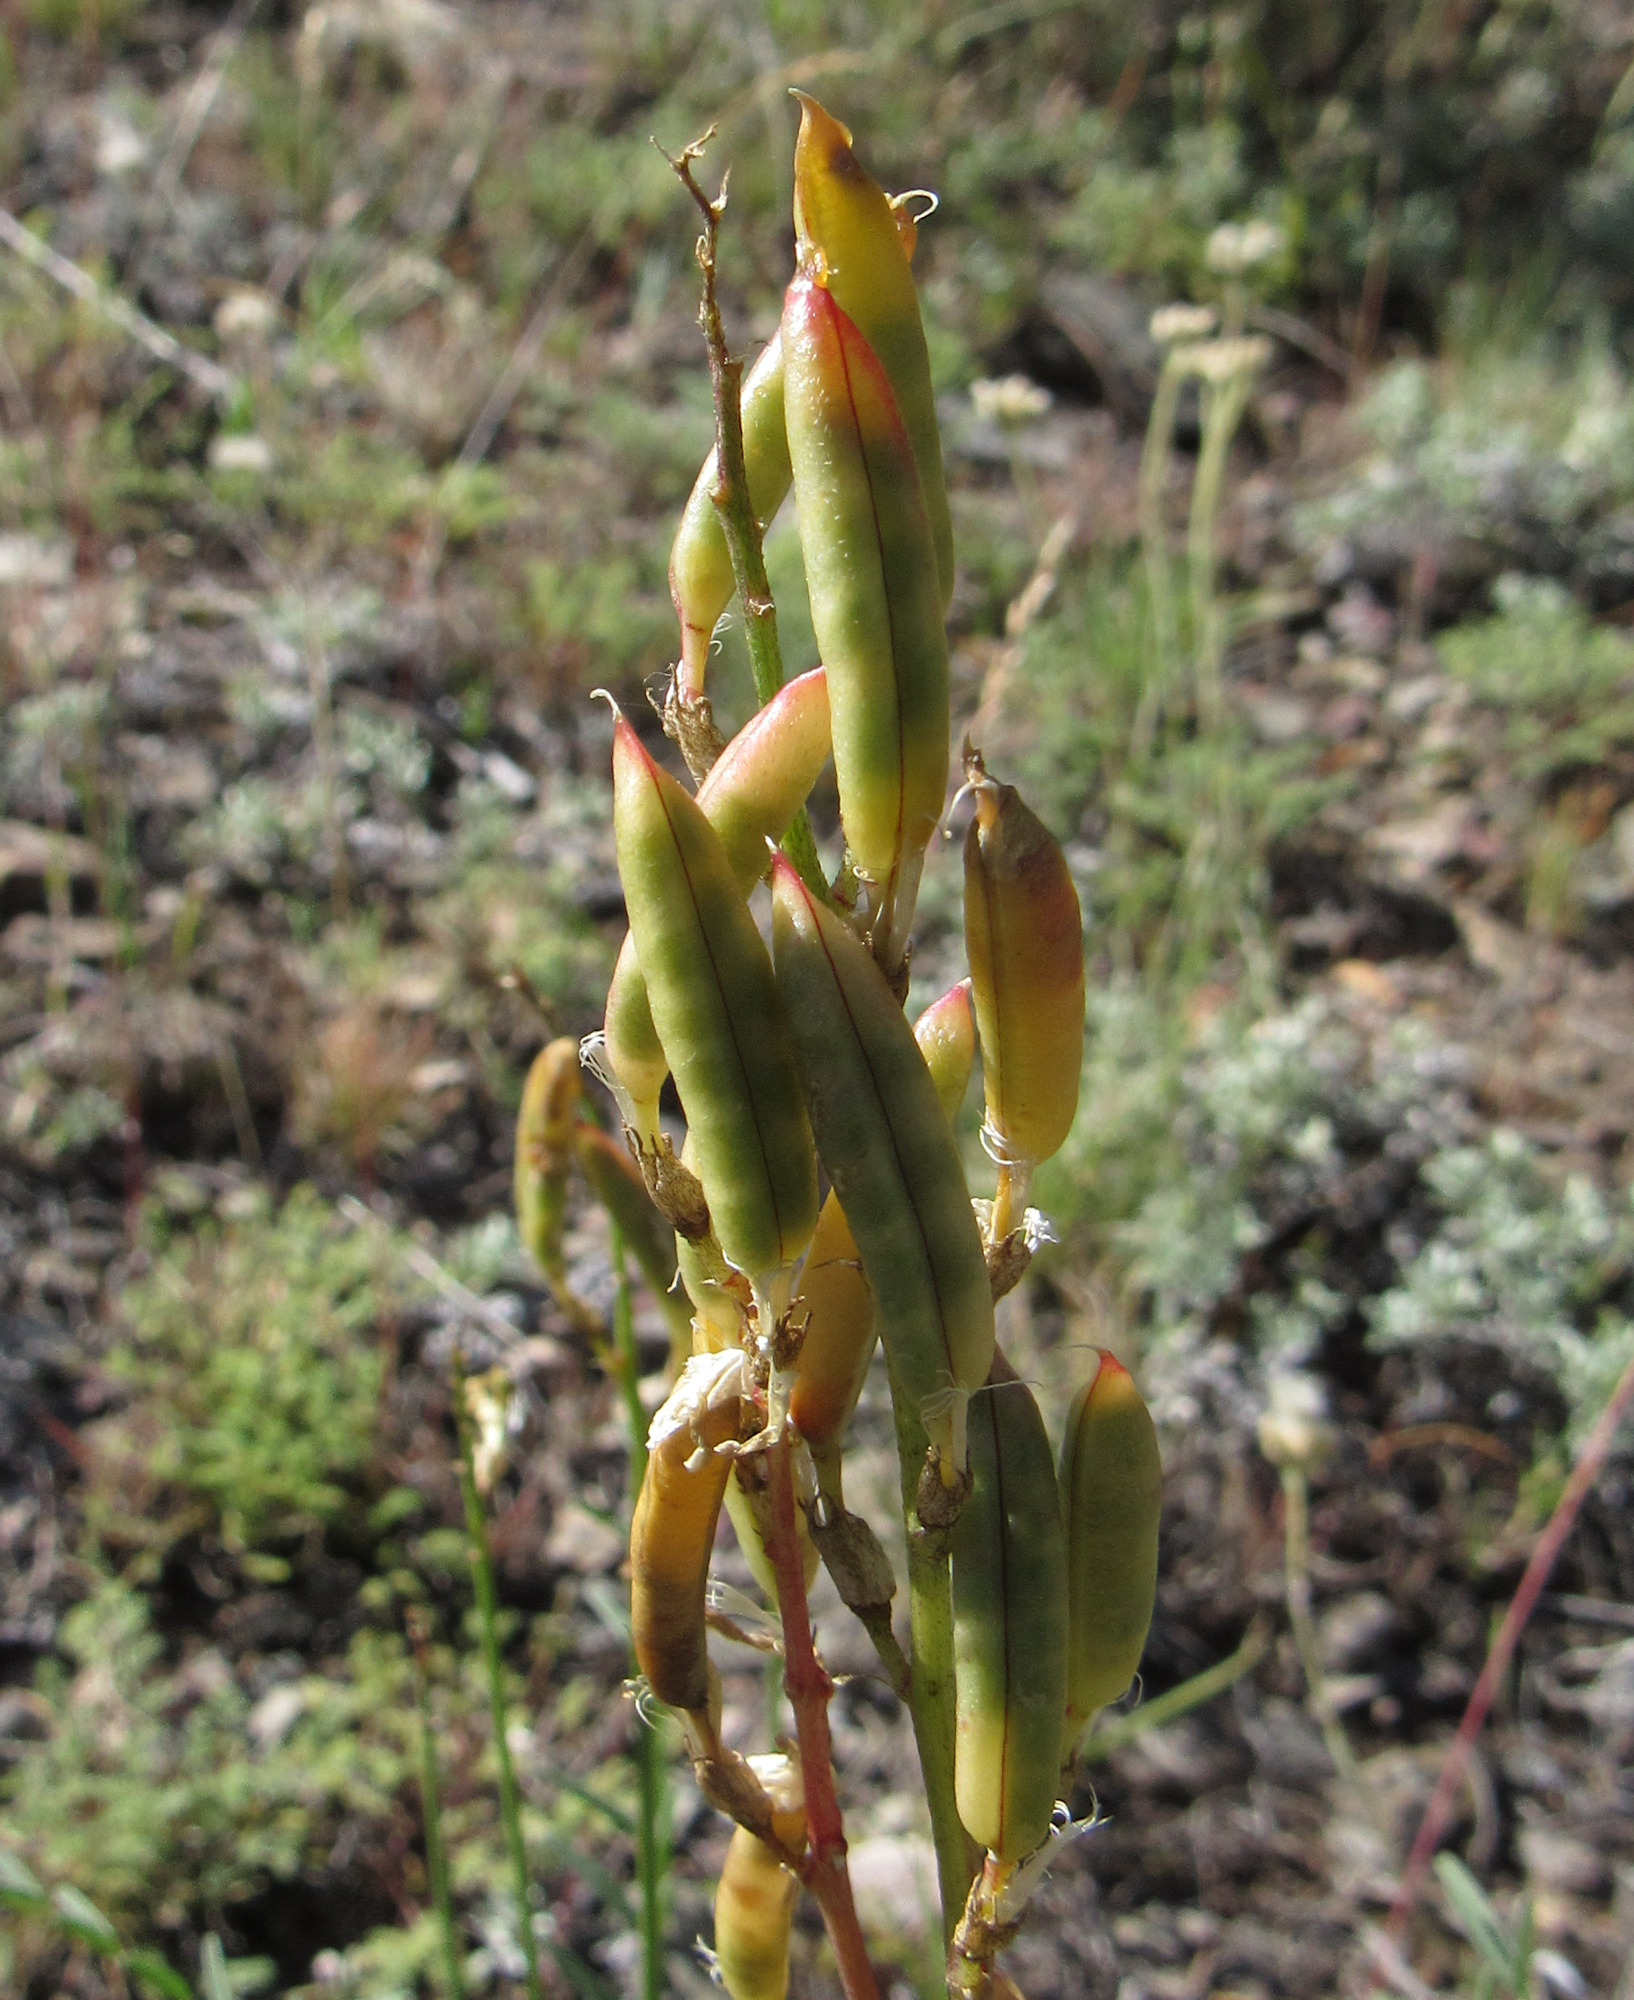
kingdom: Plantae
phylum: Tracheophyta
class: Magnoliopsida
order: Fabales
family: Fabaceae
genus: Astragalus
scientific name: Astragalus atropubescens
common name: Kelsey milk-vetch
